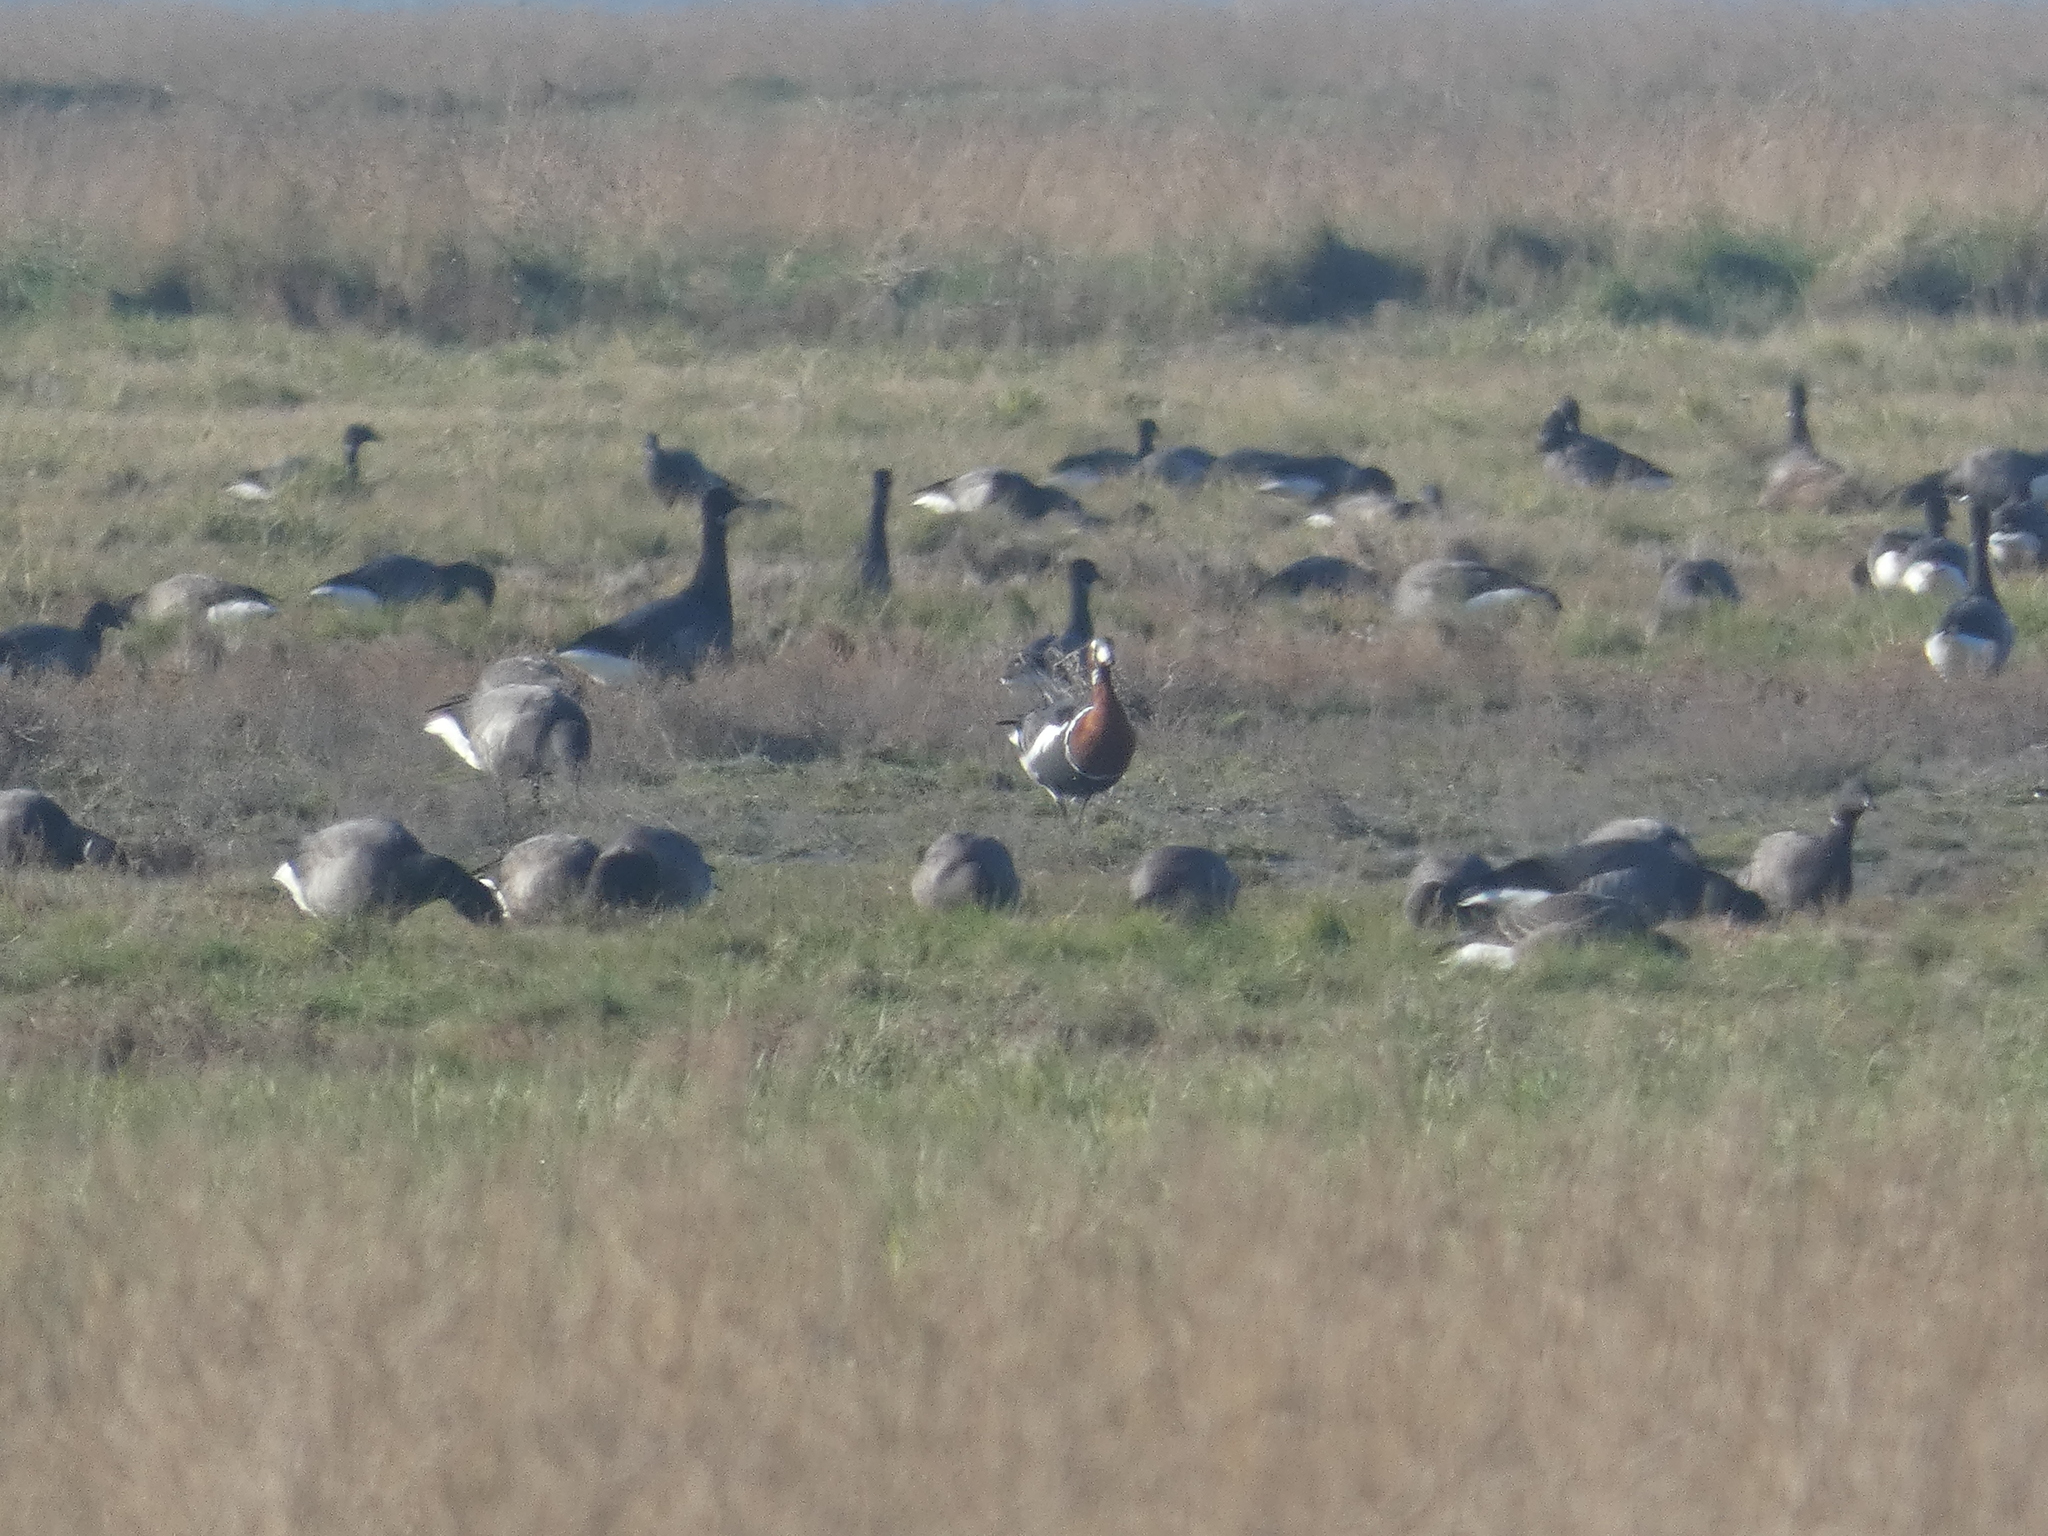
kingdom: Animalia
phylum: Chordata
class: Aves
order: Anseriformes
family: Anatidae
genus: Branta
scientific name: Branta ruficollis
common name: Red-breasted goose
